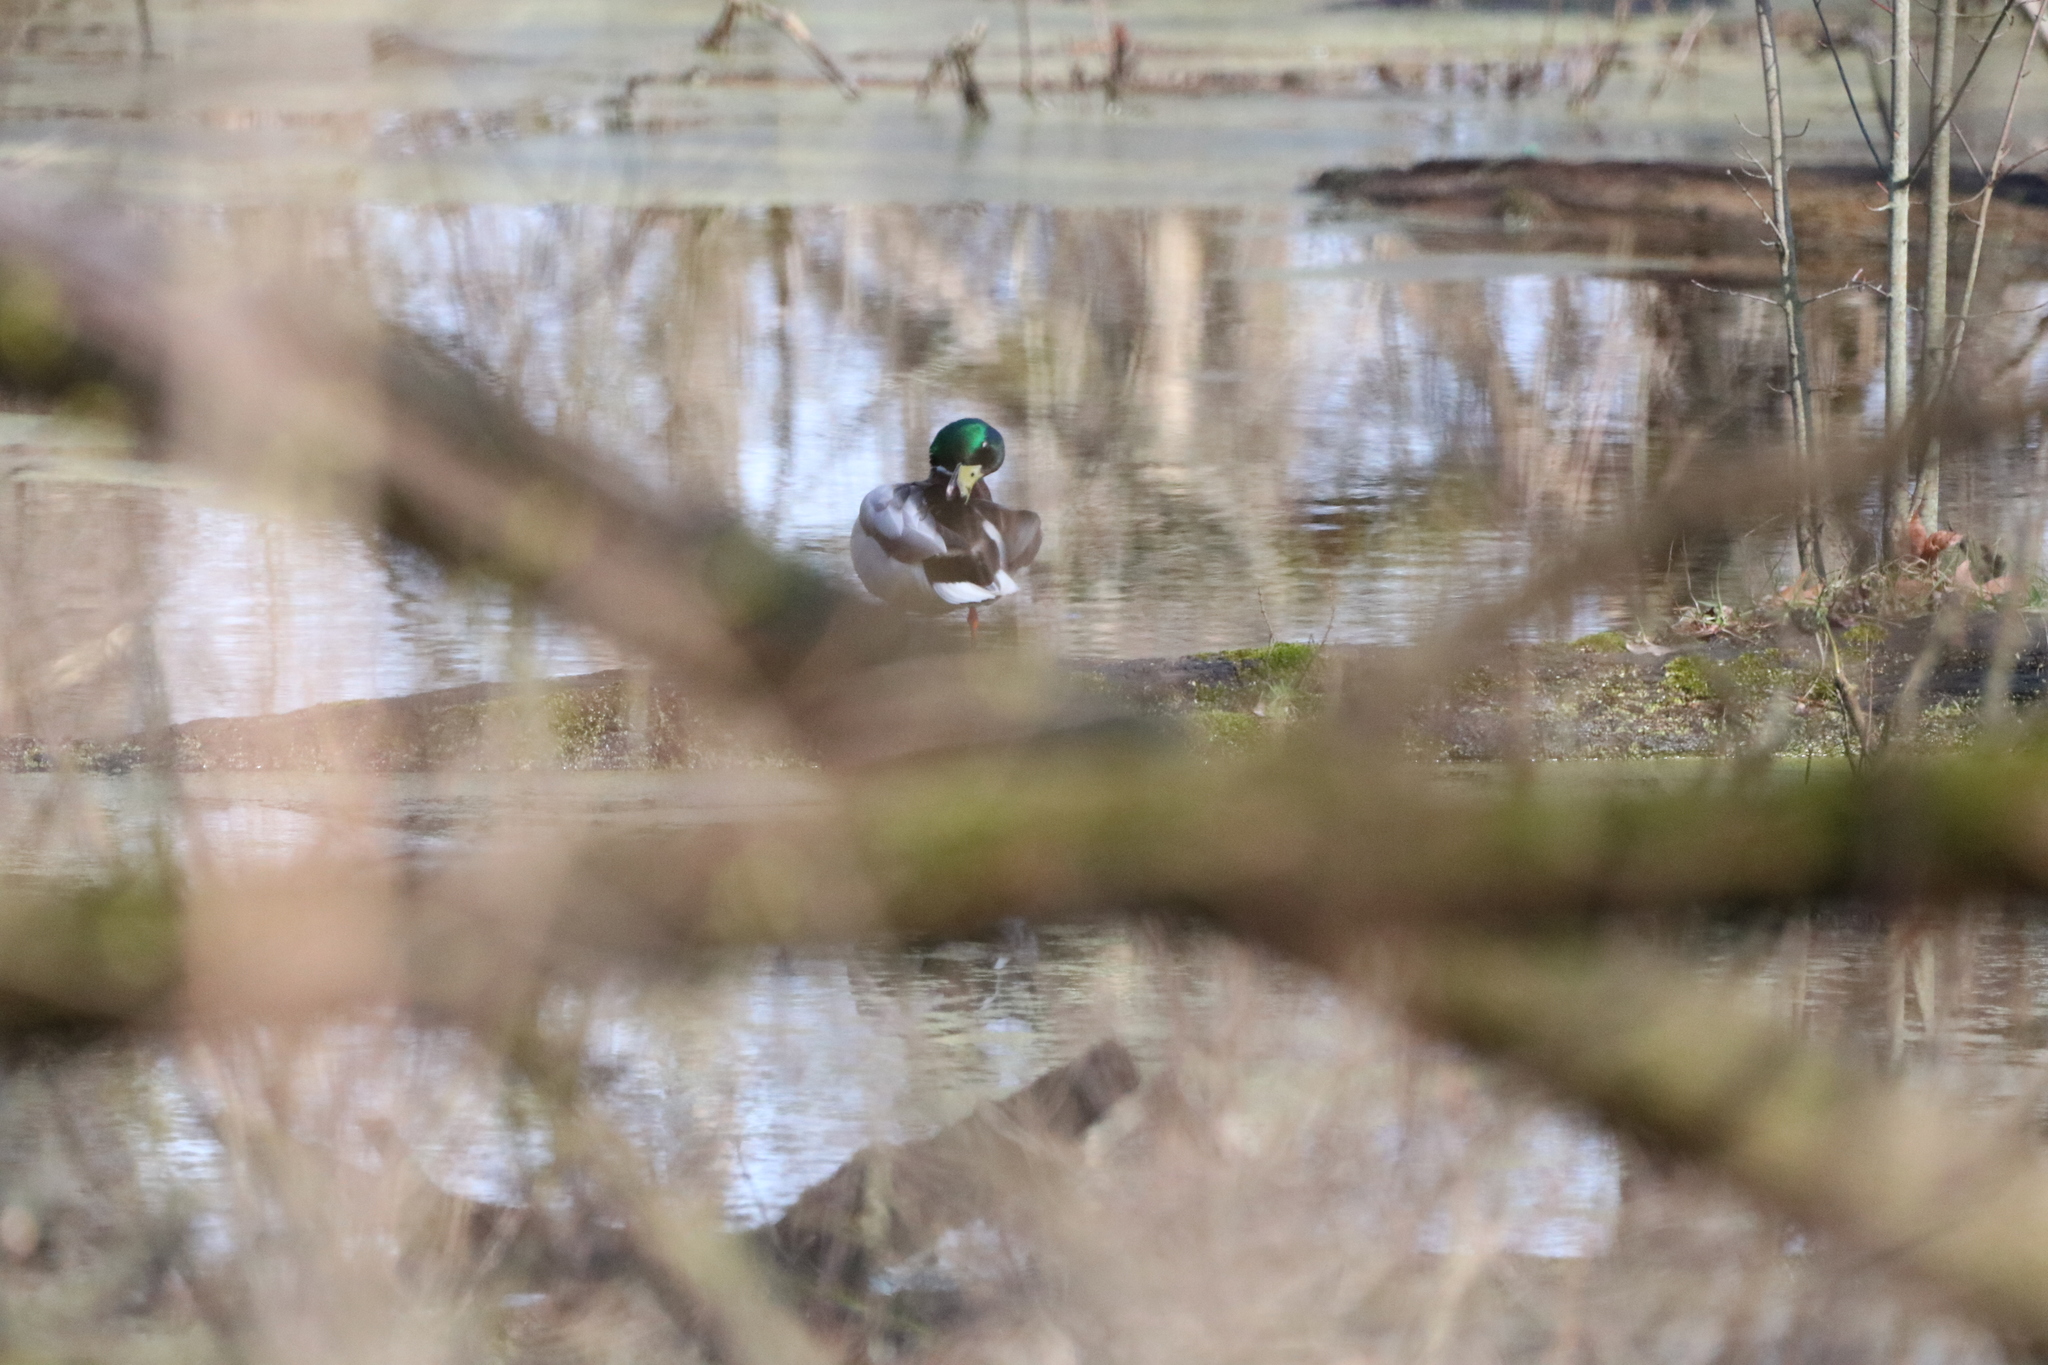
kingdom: Animalia
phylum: Chordata
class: Aves
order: Anseriformes
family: Anatidae
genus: Anas
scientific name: Anas platyrhynchos
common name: Mallard
